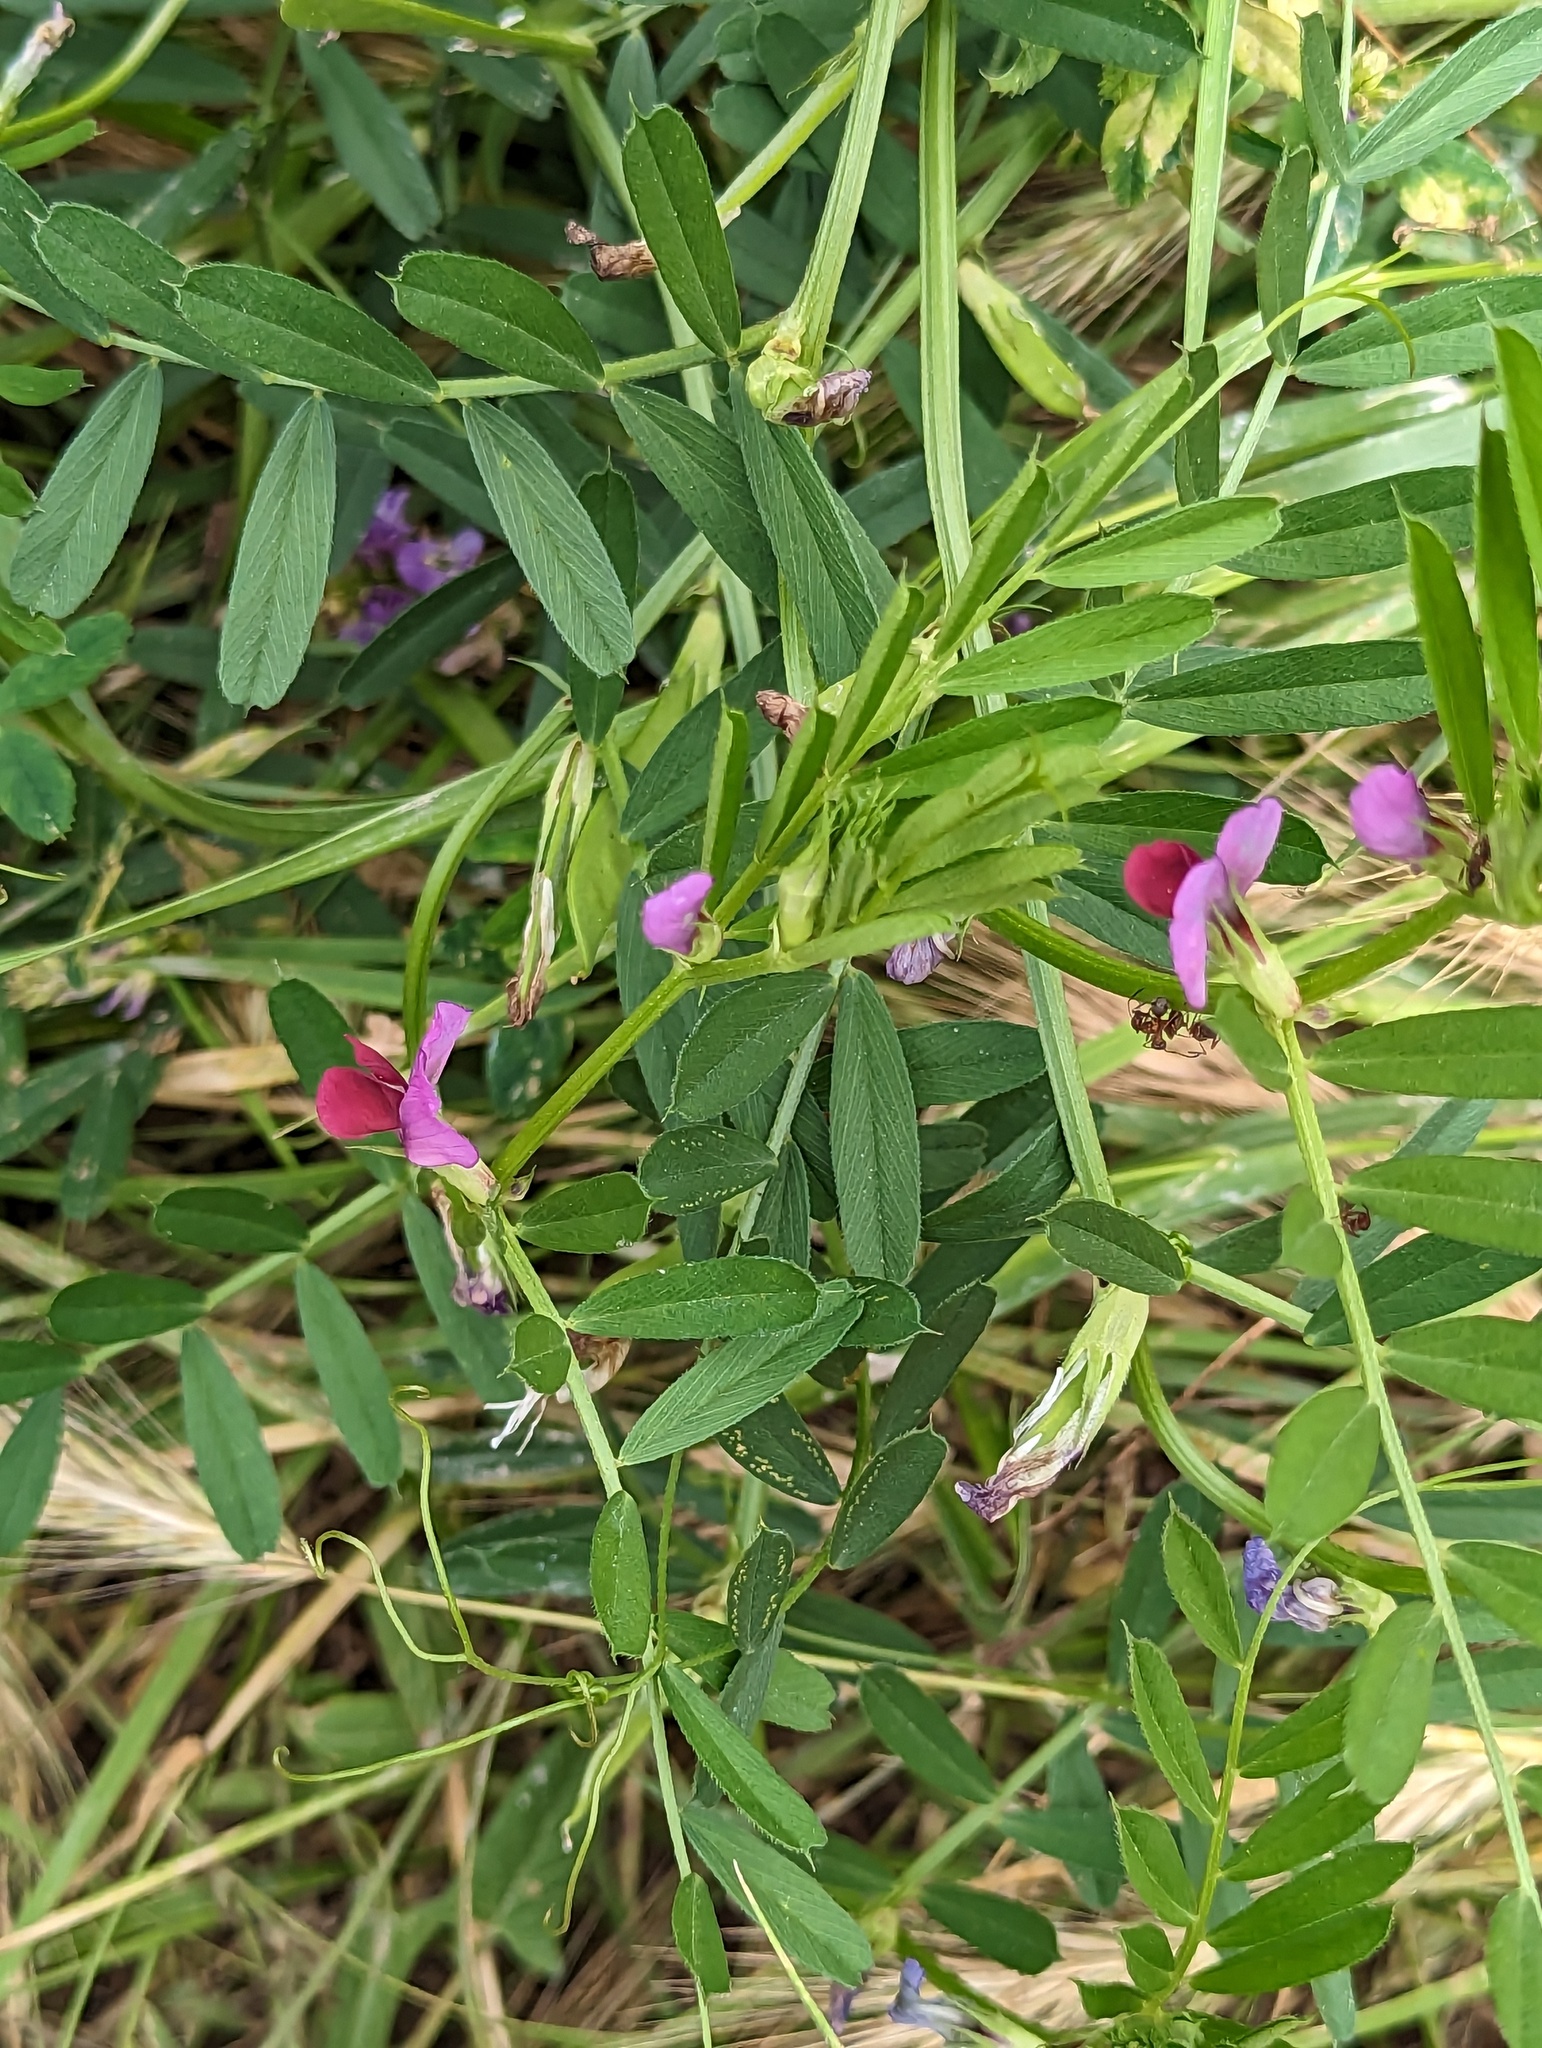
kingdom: Plantae
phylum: Tracheophyta
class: Magnoliopsida
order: Fabales
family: Fabaceae
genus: Vicia
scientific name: Vicia sativa
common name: Garden vetch
